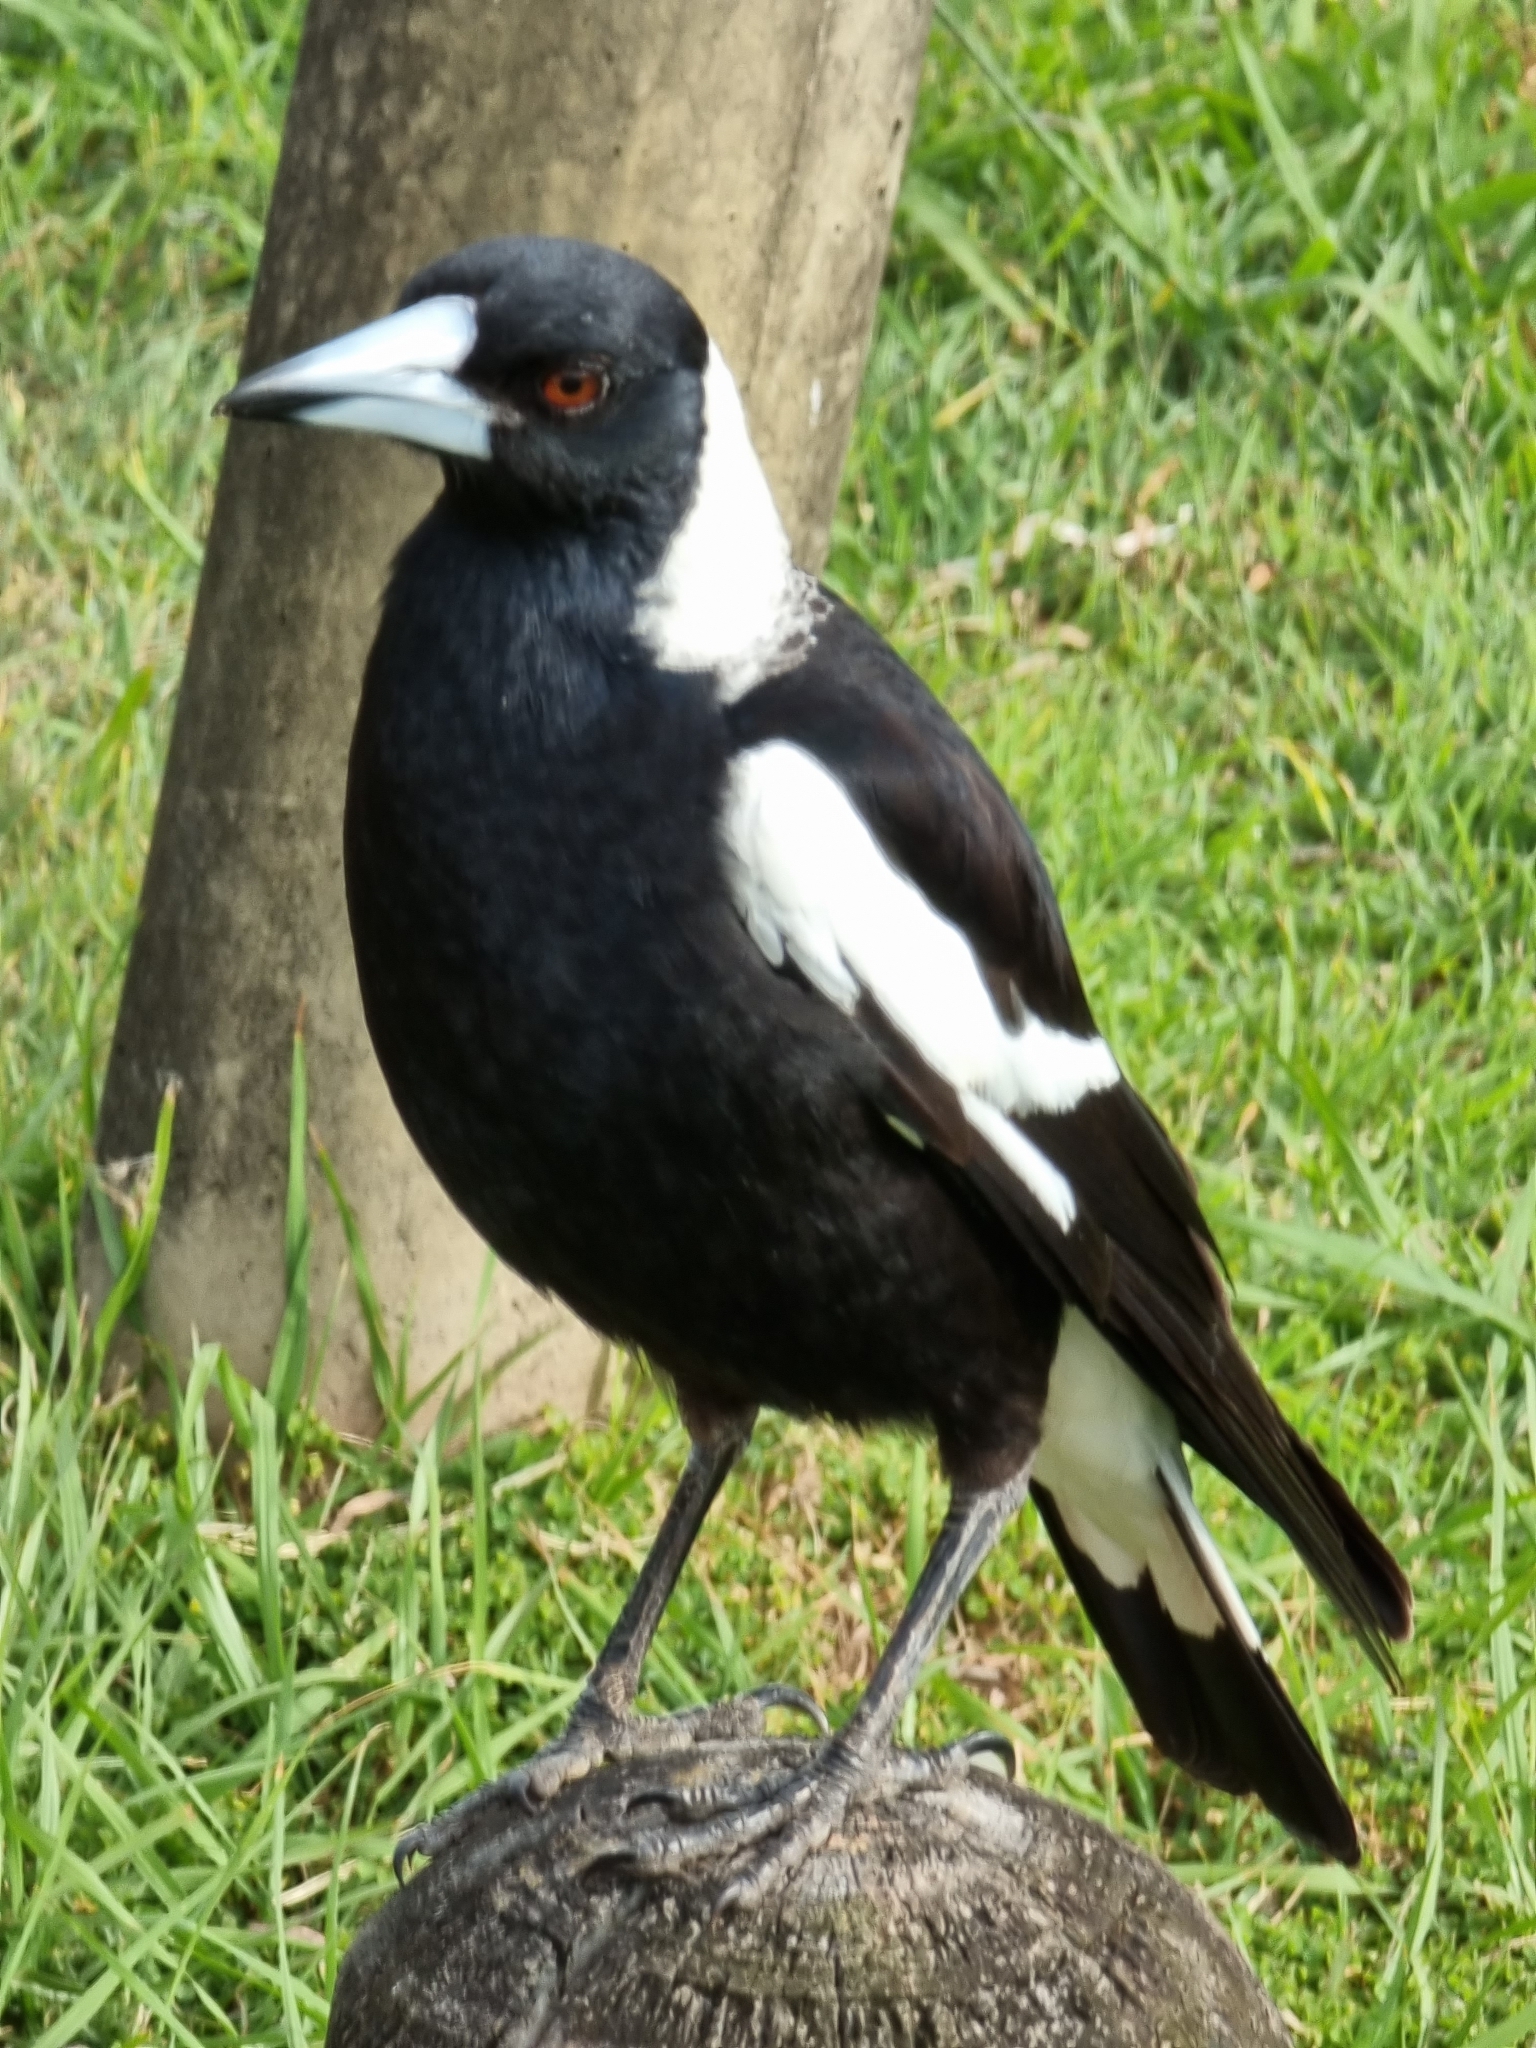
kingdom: Animalia
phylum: Chordata
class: Aves
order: Passeriformes
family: Cracticidae
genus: Gymnorhina
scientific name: Gymnorhina tibicen
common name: Australian magpie
